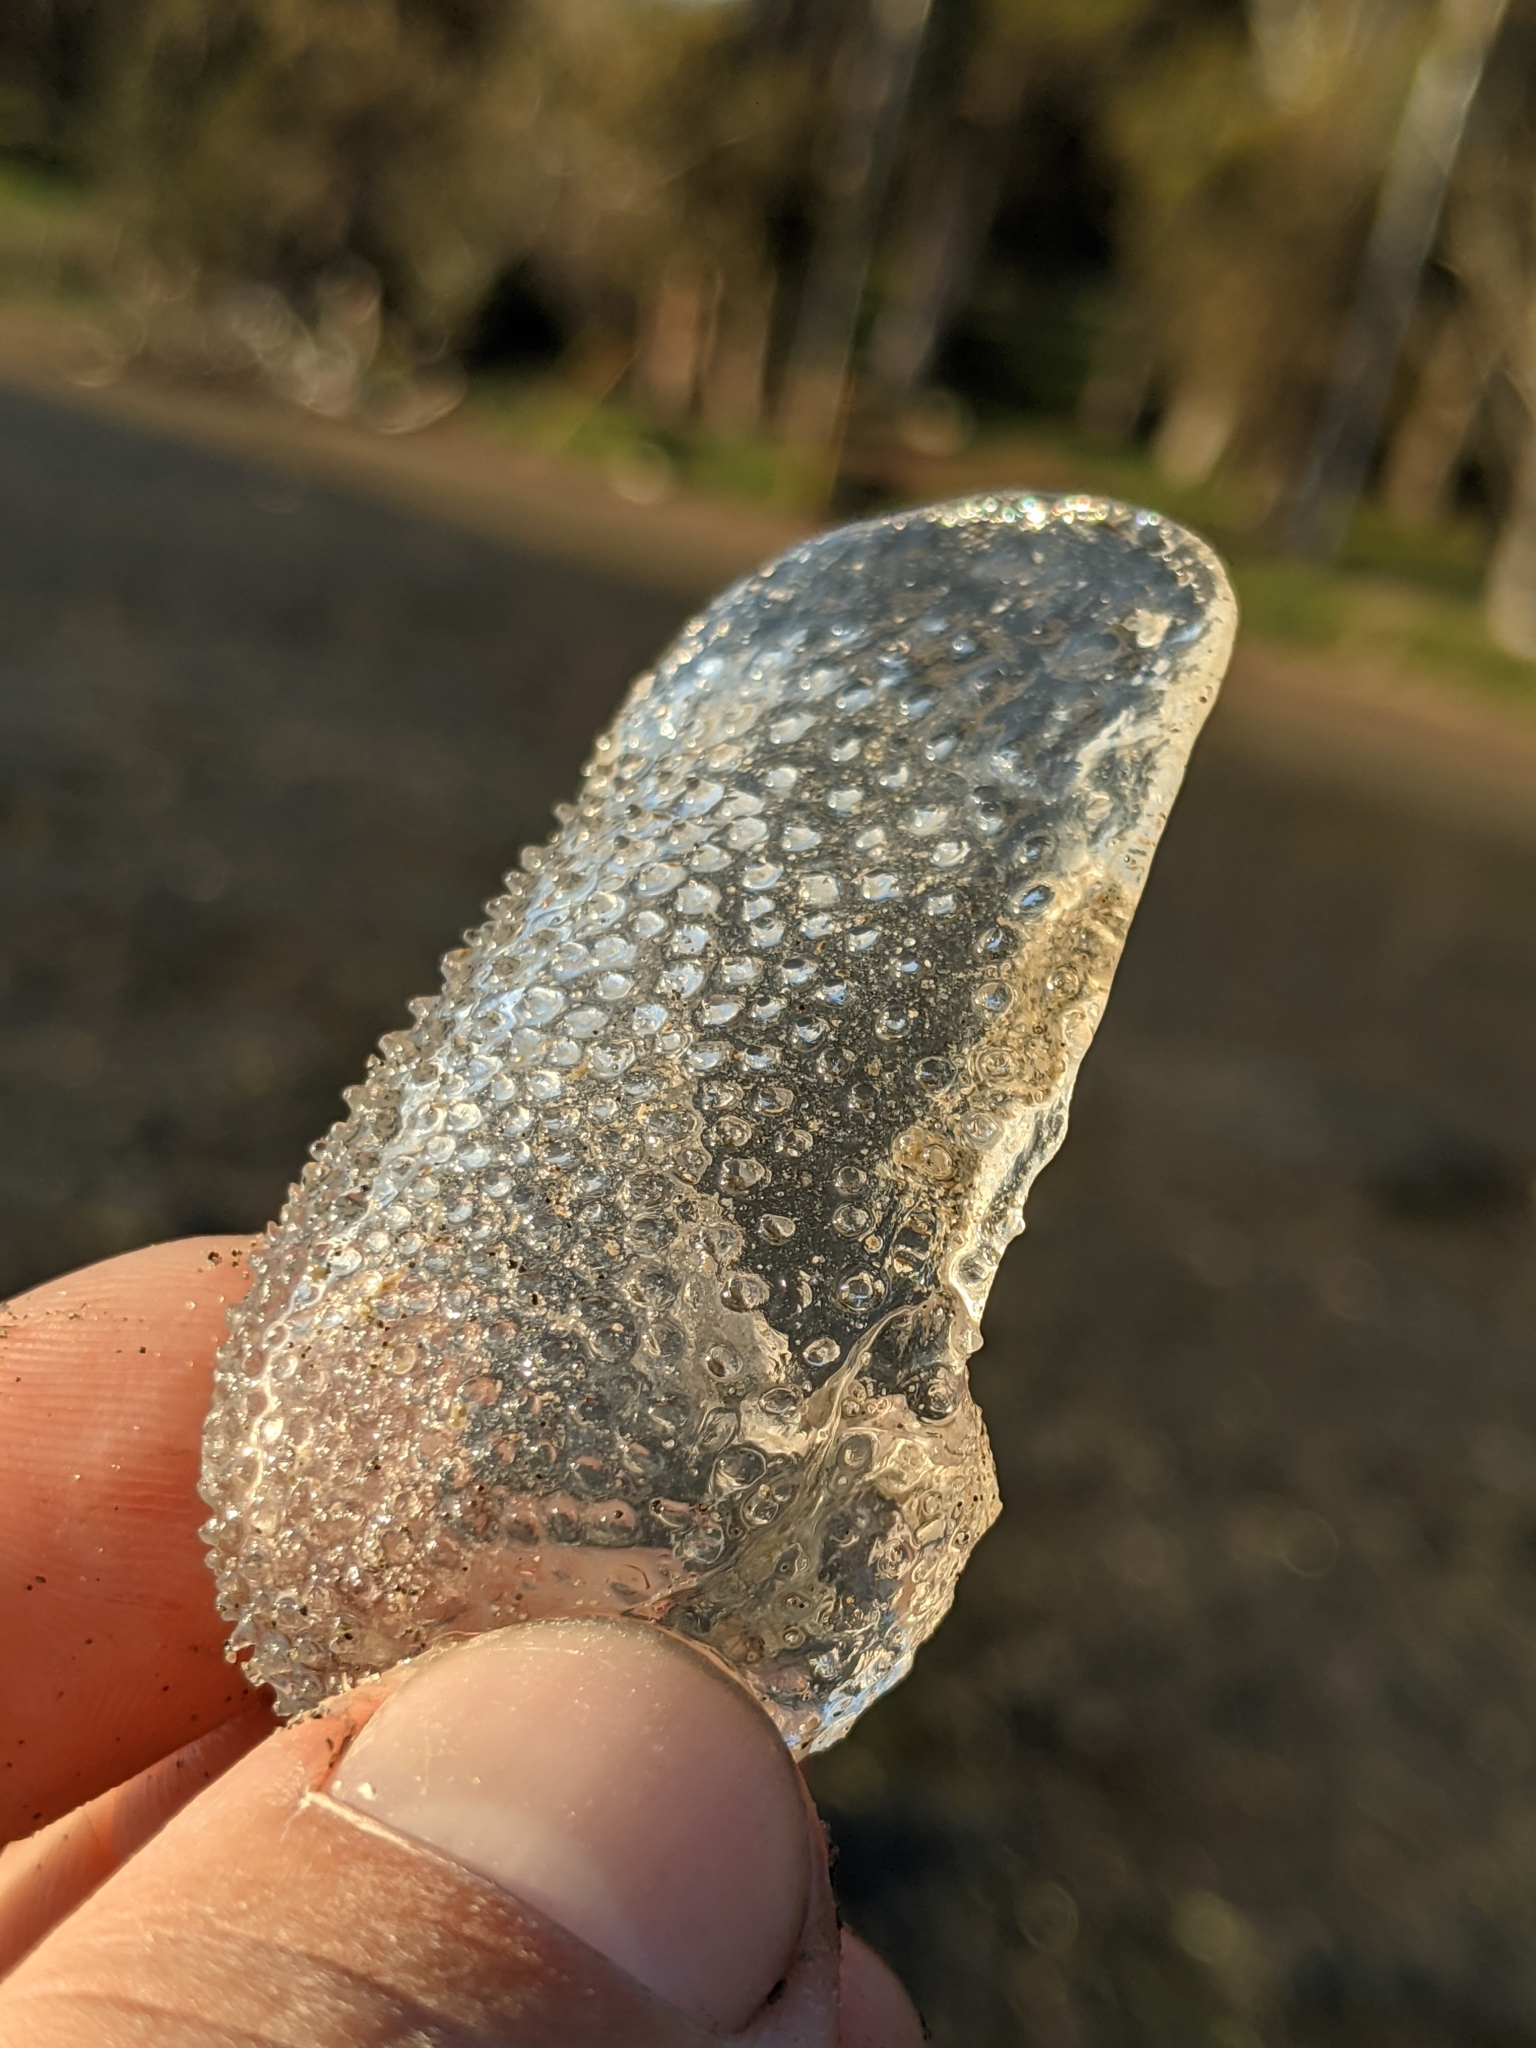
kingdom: Animalia
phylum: Mollusca
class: Gastropoda
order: Pteropoda
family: Cymbuliidae
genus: Corolla
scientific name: Corolla spectabilis
